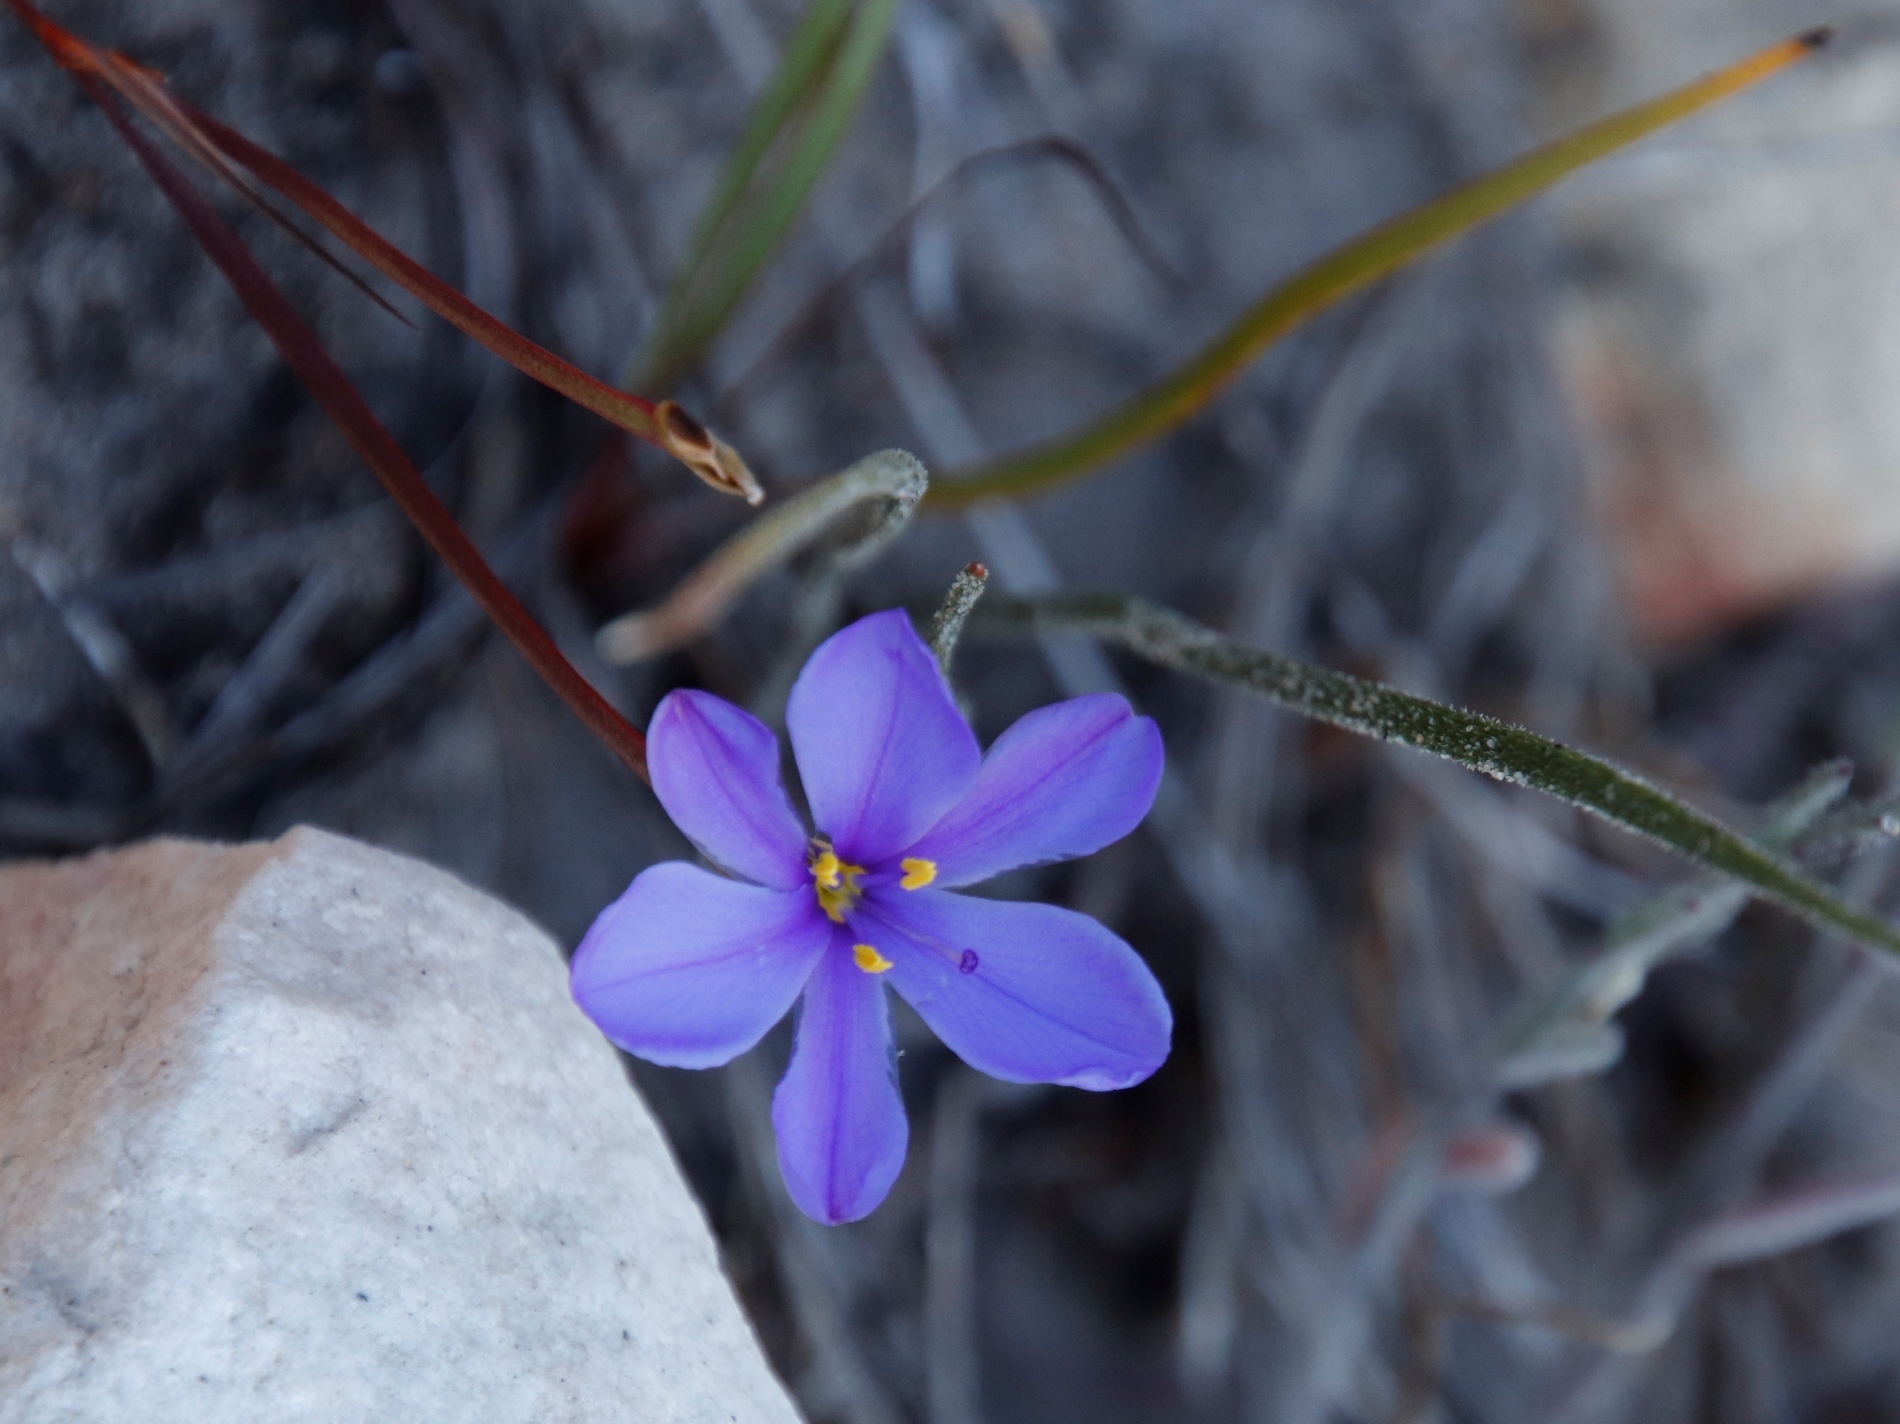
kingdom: Plantae
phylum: Tracheophyta
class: Liliopsida
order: Asparagales
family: Iridaceae
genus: Aristea
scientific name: Aristea dichotoma
